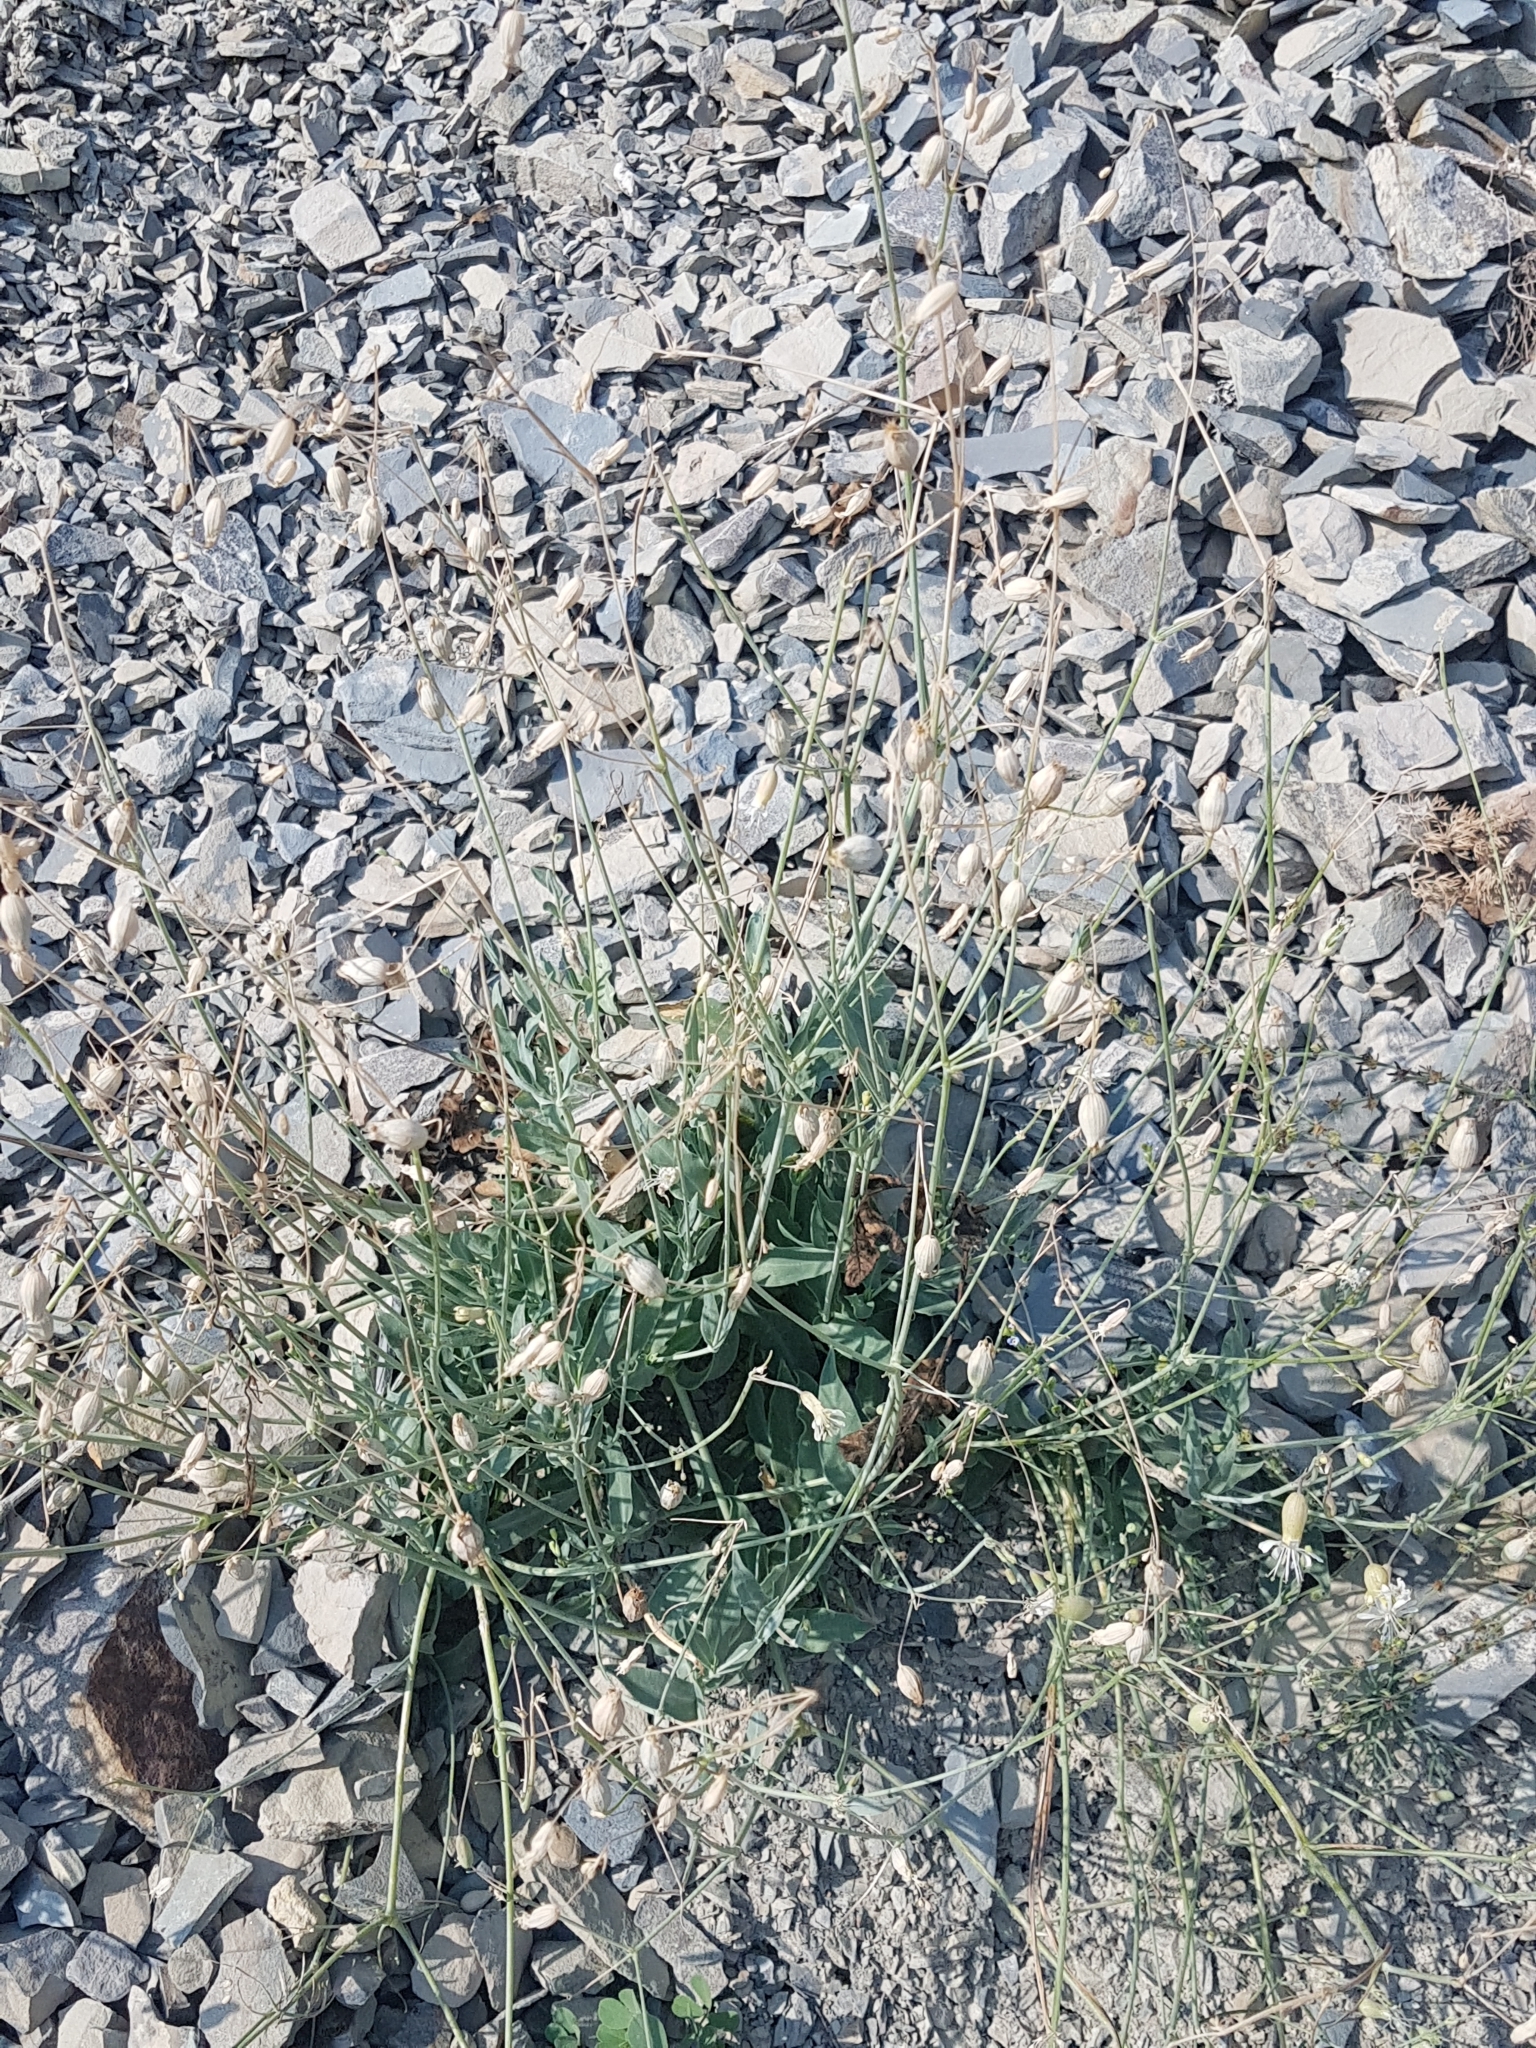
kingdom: Plantae
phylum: Tracheophyta
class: Magnoliopsida
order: Caryophyllales
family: Caryophyllaceae
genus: Silene
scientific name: Silene csereii
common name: Balkan catchfly
